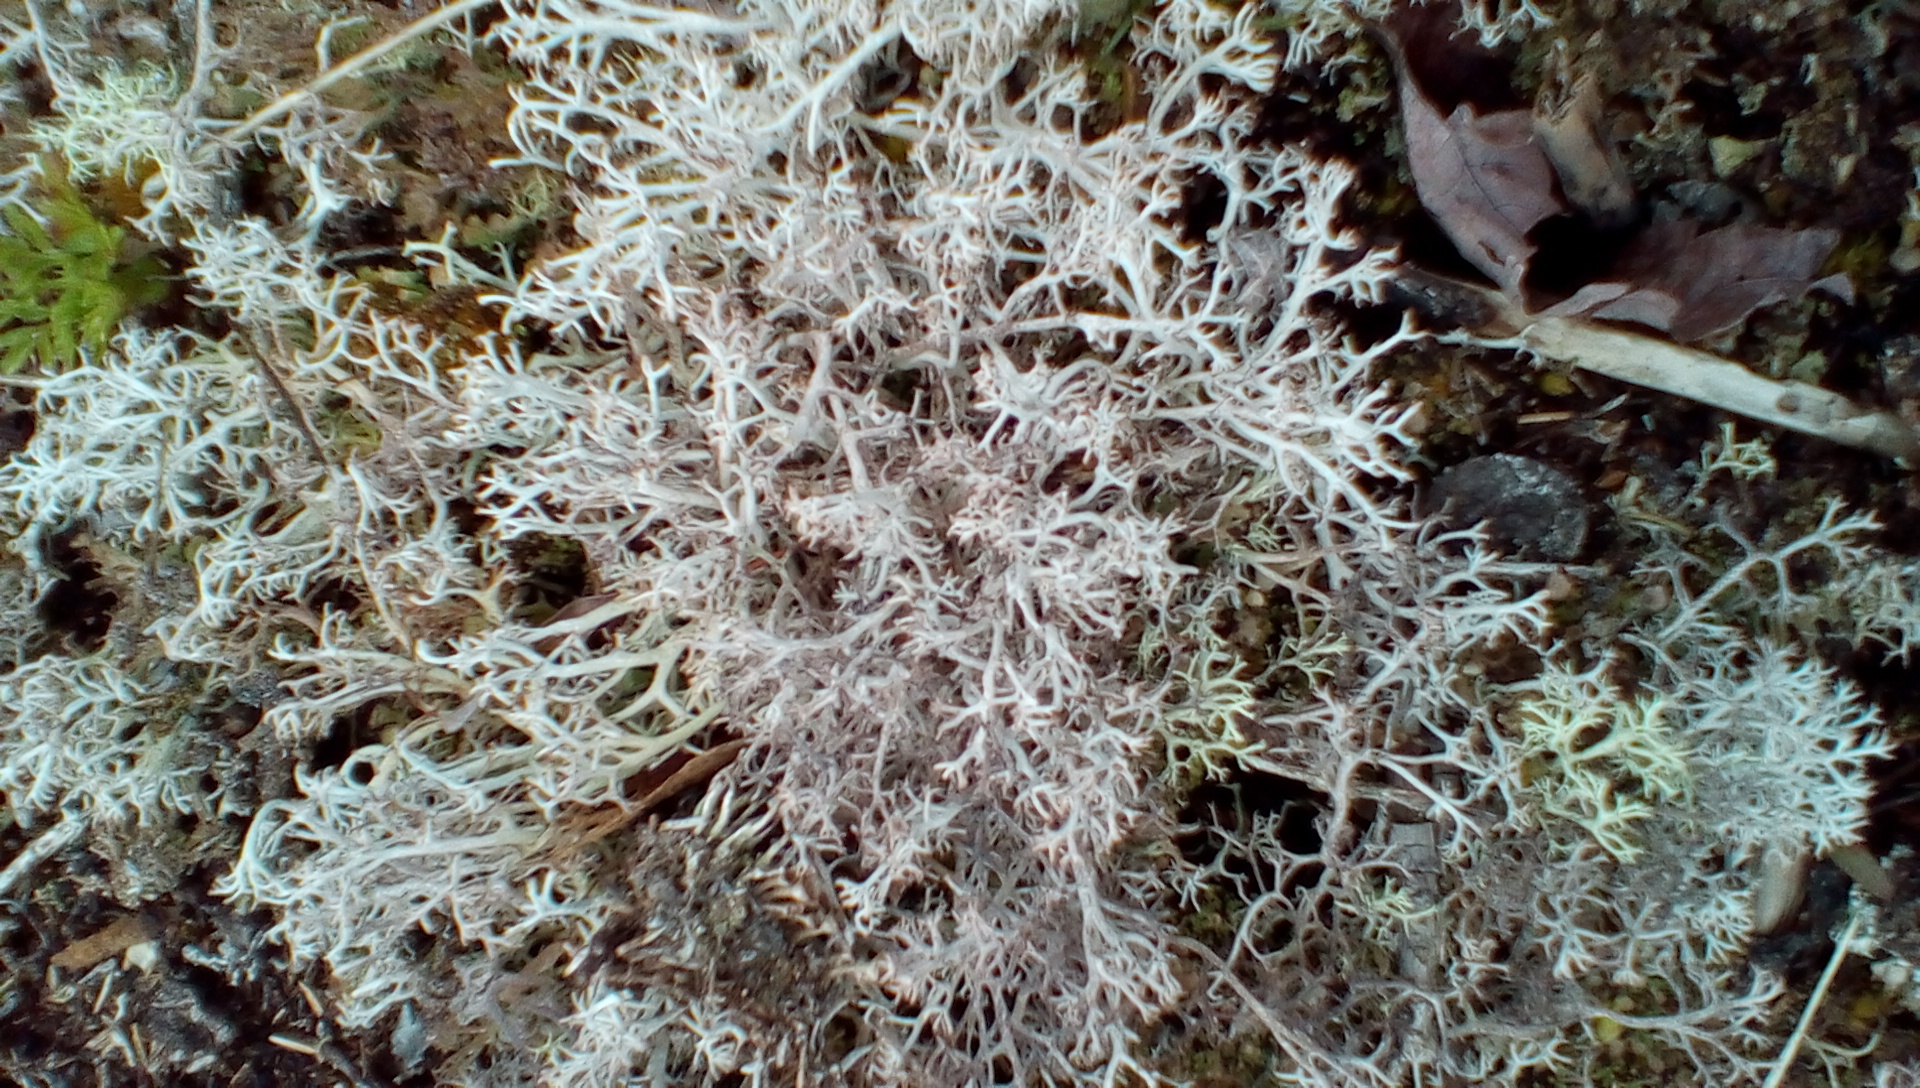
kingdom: Fungi
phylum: Ascomycota
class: Lecanoromycetes
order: Lecanorales
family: Cladoniaceae
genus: Cladonia
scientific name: Cladonia rangiferina
